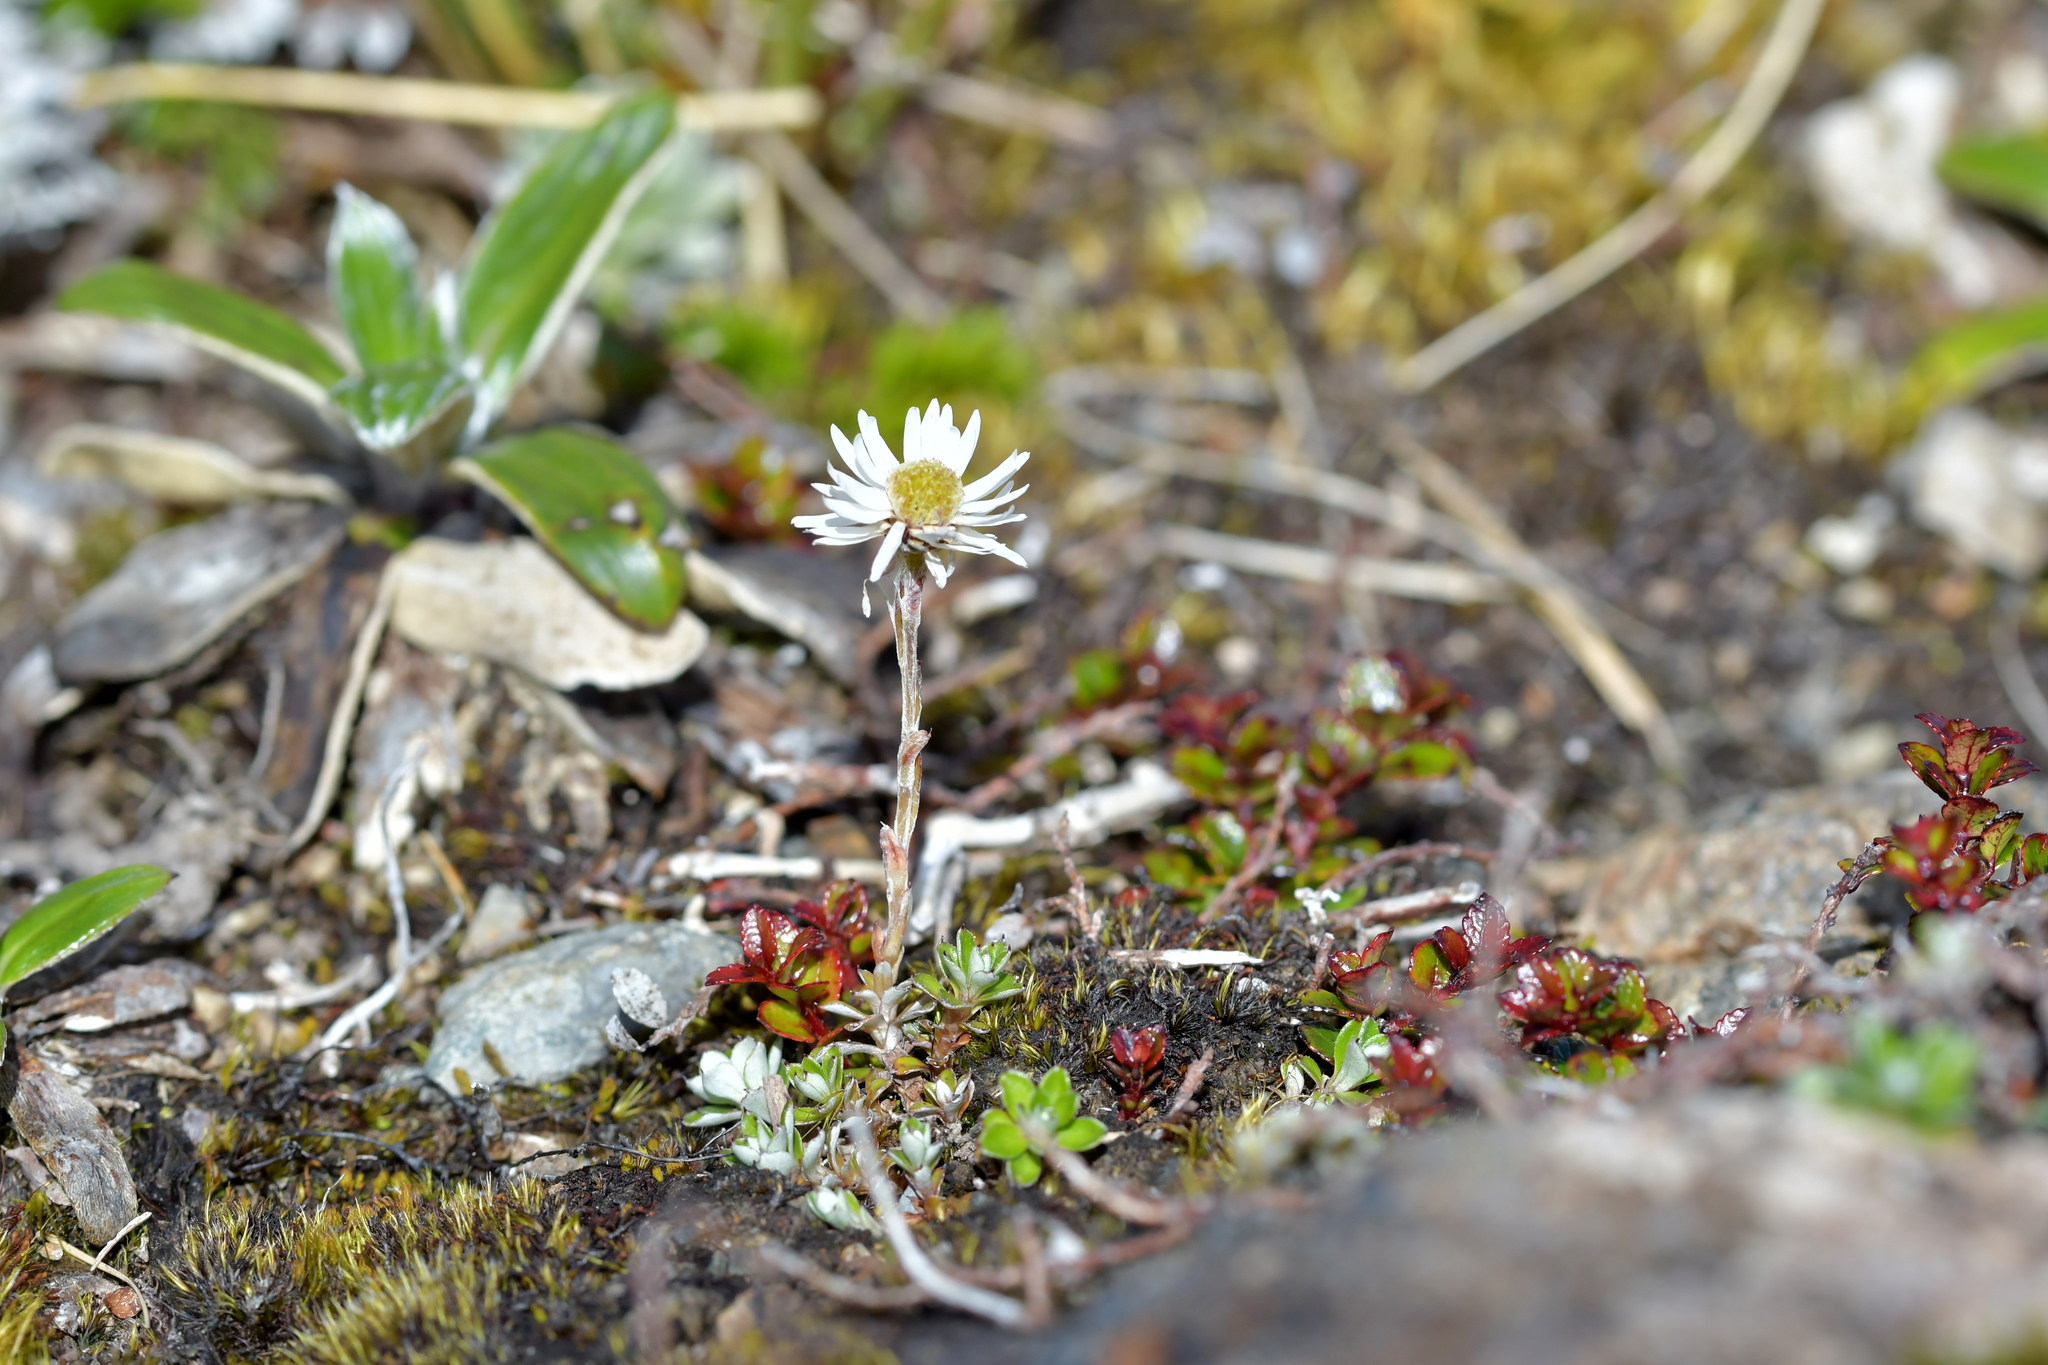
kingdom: Plantae
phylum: Tracheophyta
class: Magnoliopsida
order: Asterales
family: Asteraceae
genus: Anaphalioides
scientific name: Anaphalioides bellidioides
